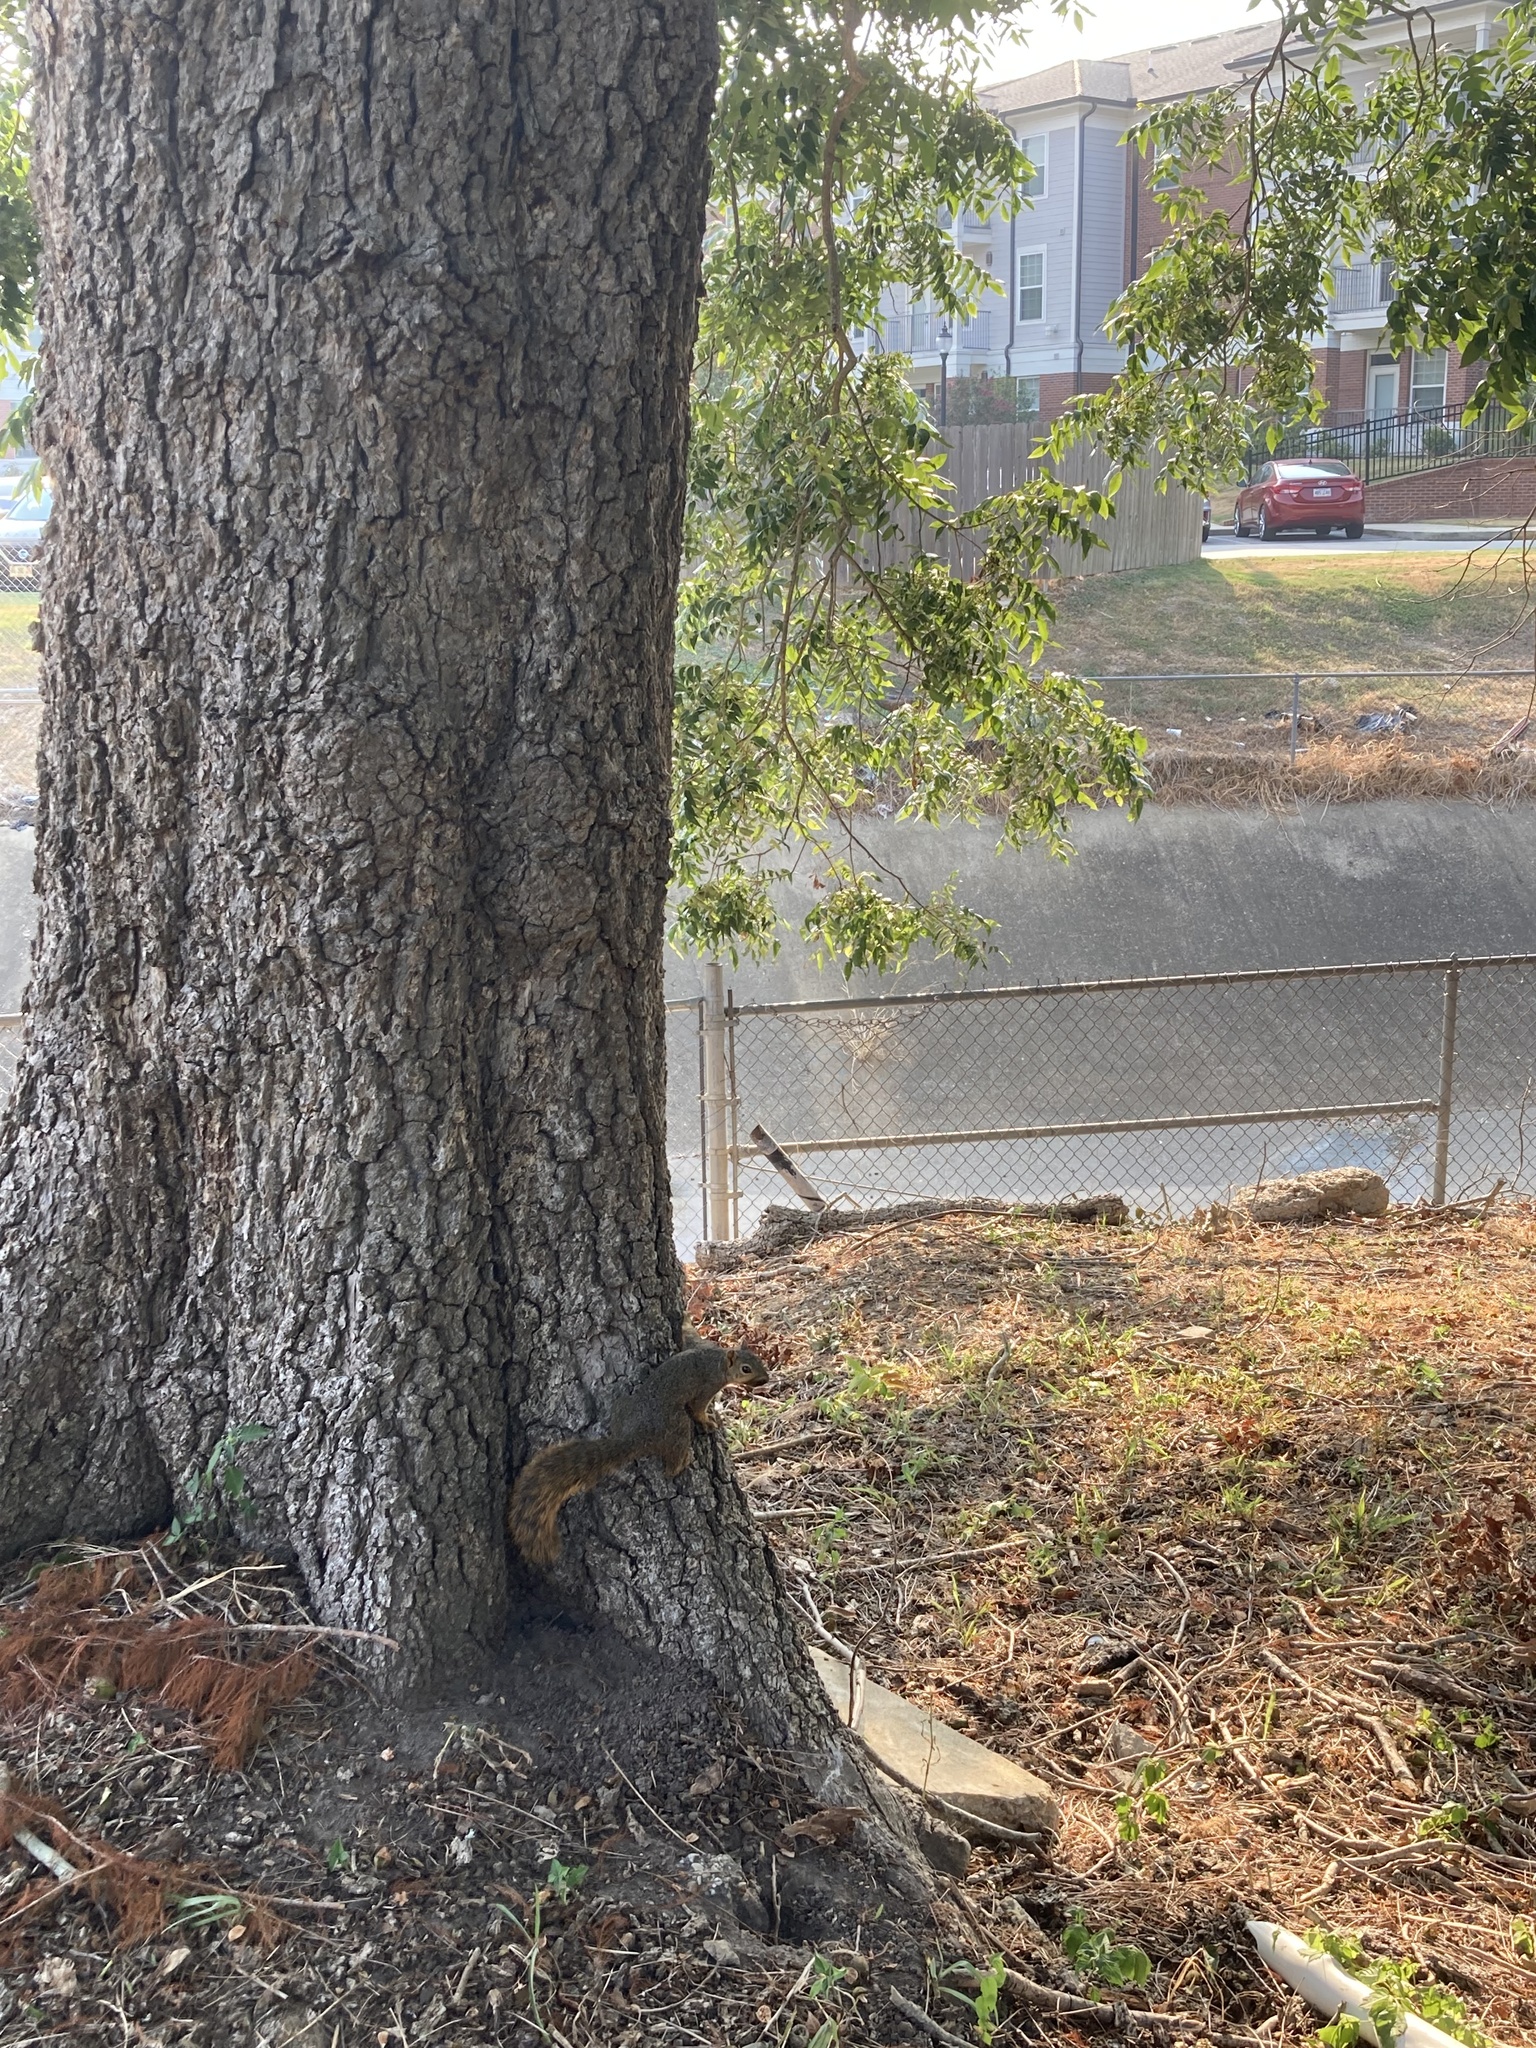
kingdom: Animalia
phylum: Chordata
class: Mammalia
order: Rodentia
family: Sciuridae
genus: Sciurus
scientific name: Sciurus niger
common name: Fox squirrel
